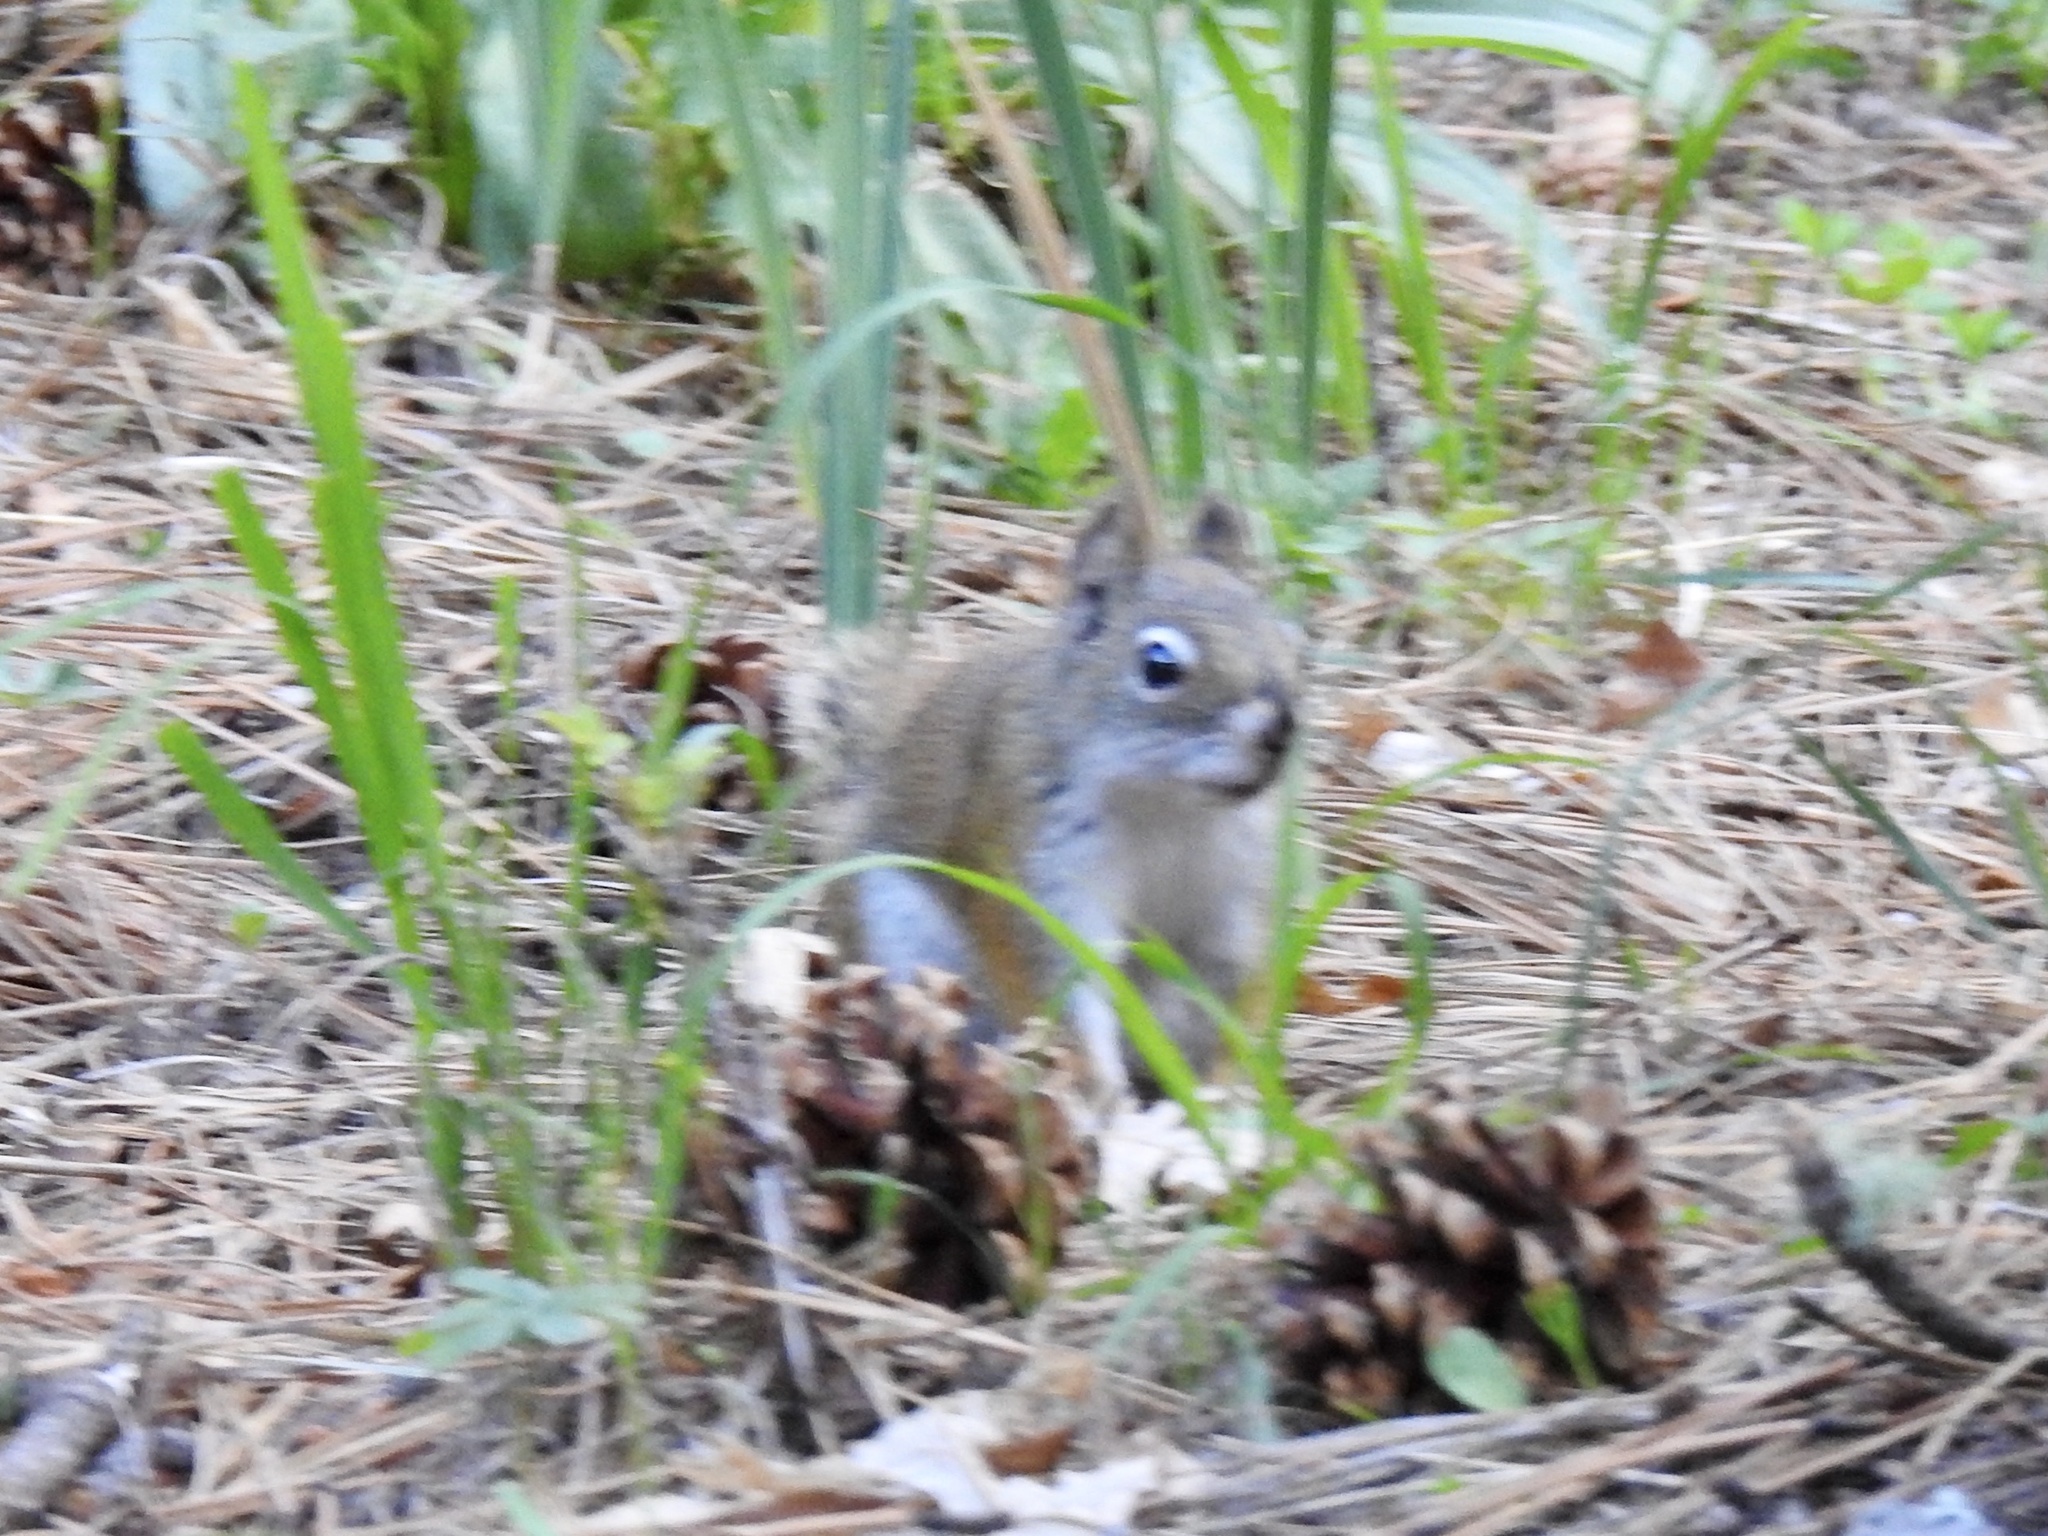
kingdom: Animalia
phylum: Chordata
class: Mammalia
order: Rodentia
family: Sciuridae
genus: Tamiasciurus
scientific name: Tamiasciurus hudsonicus
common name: Red squirrel
